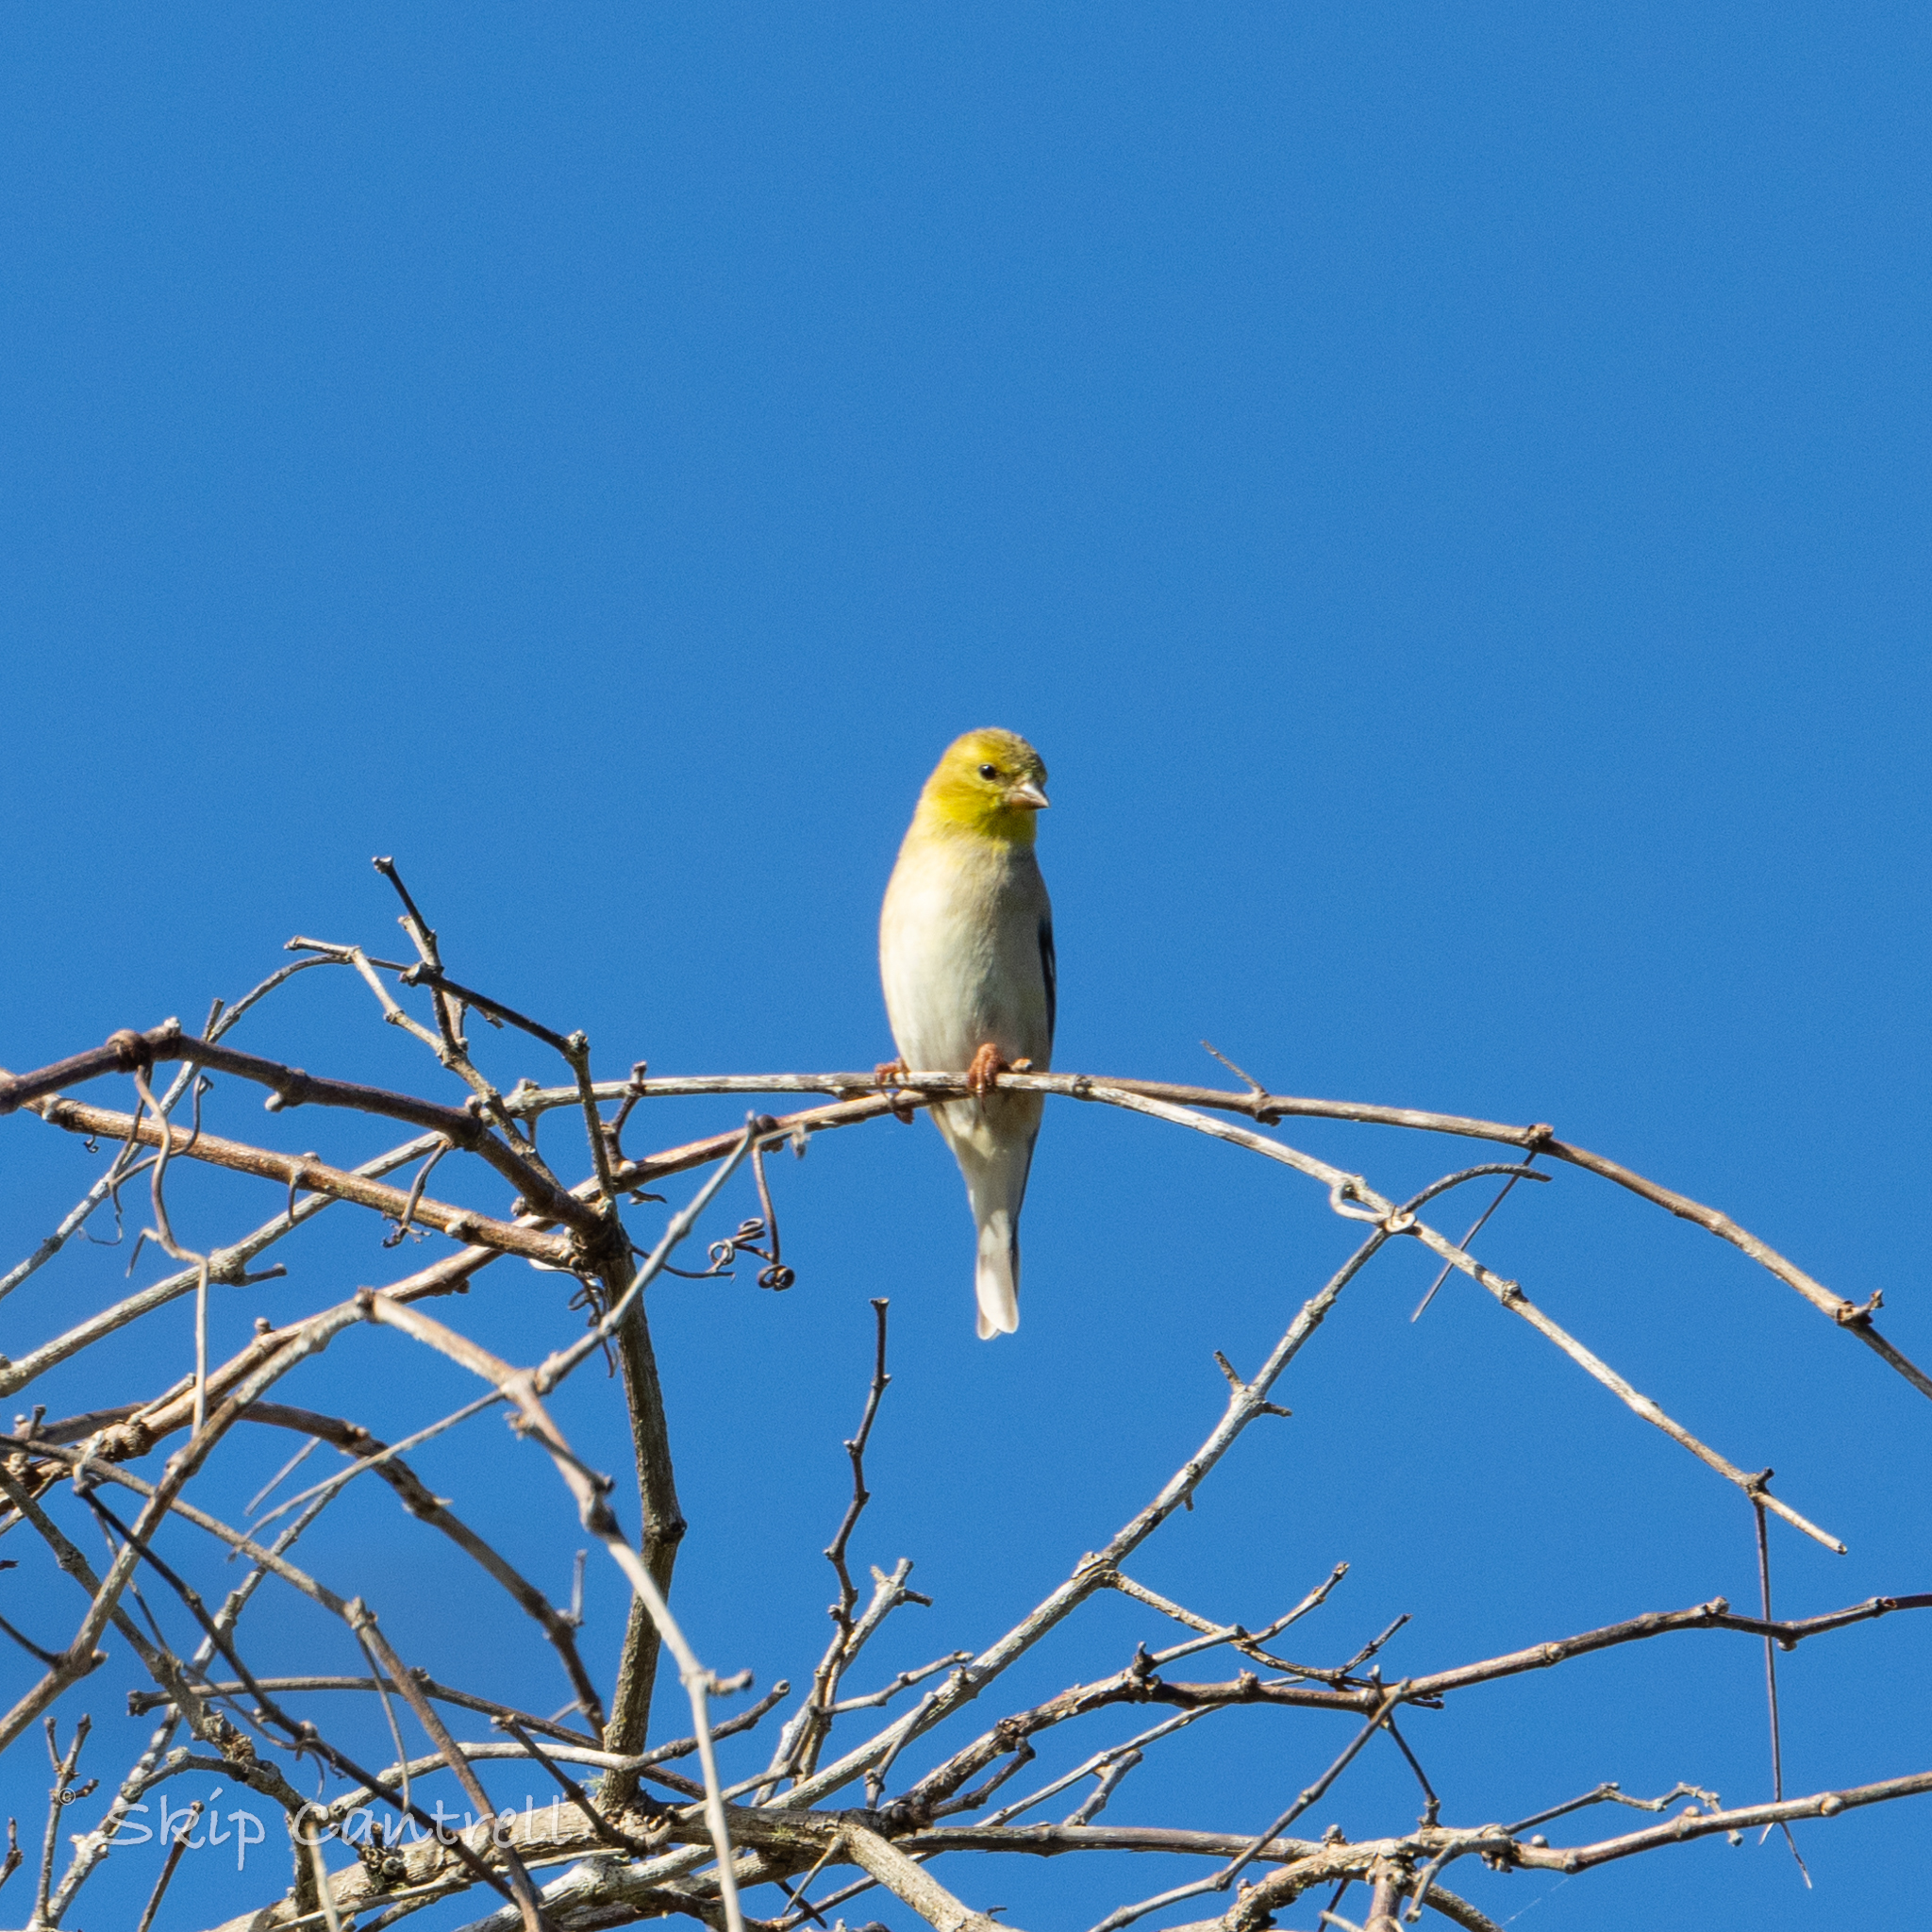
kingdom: Animalia
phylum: Chordata
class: Aves
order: Passeriformes
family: Fringillidae
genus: Spinus
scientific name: Spinus tristis
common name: American goldfinch
